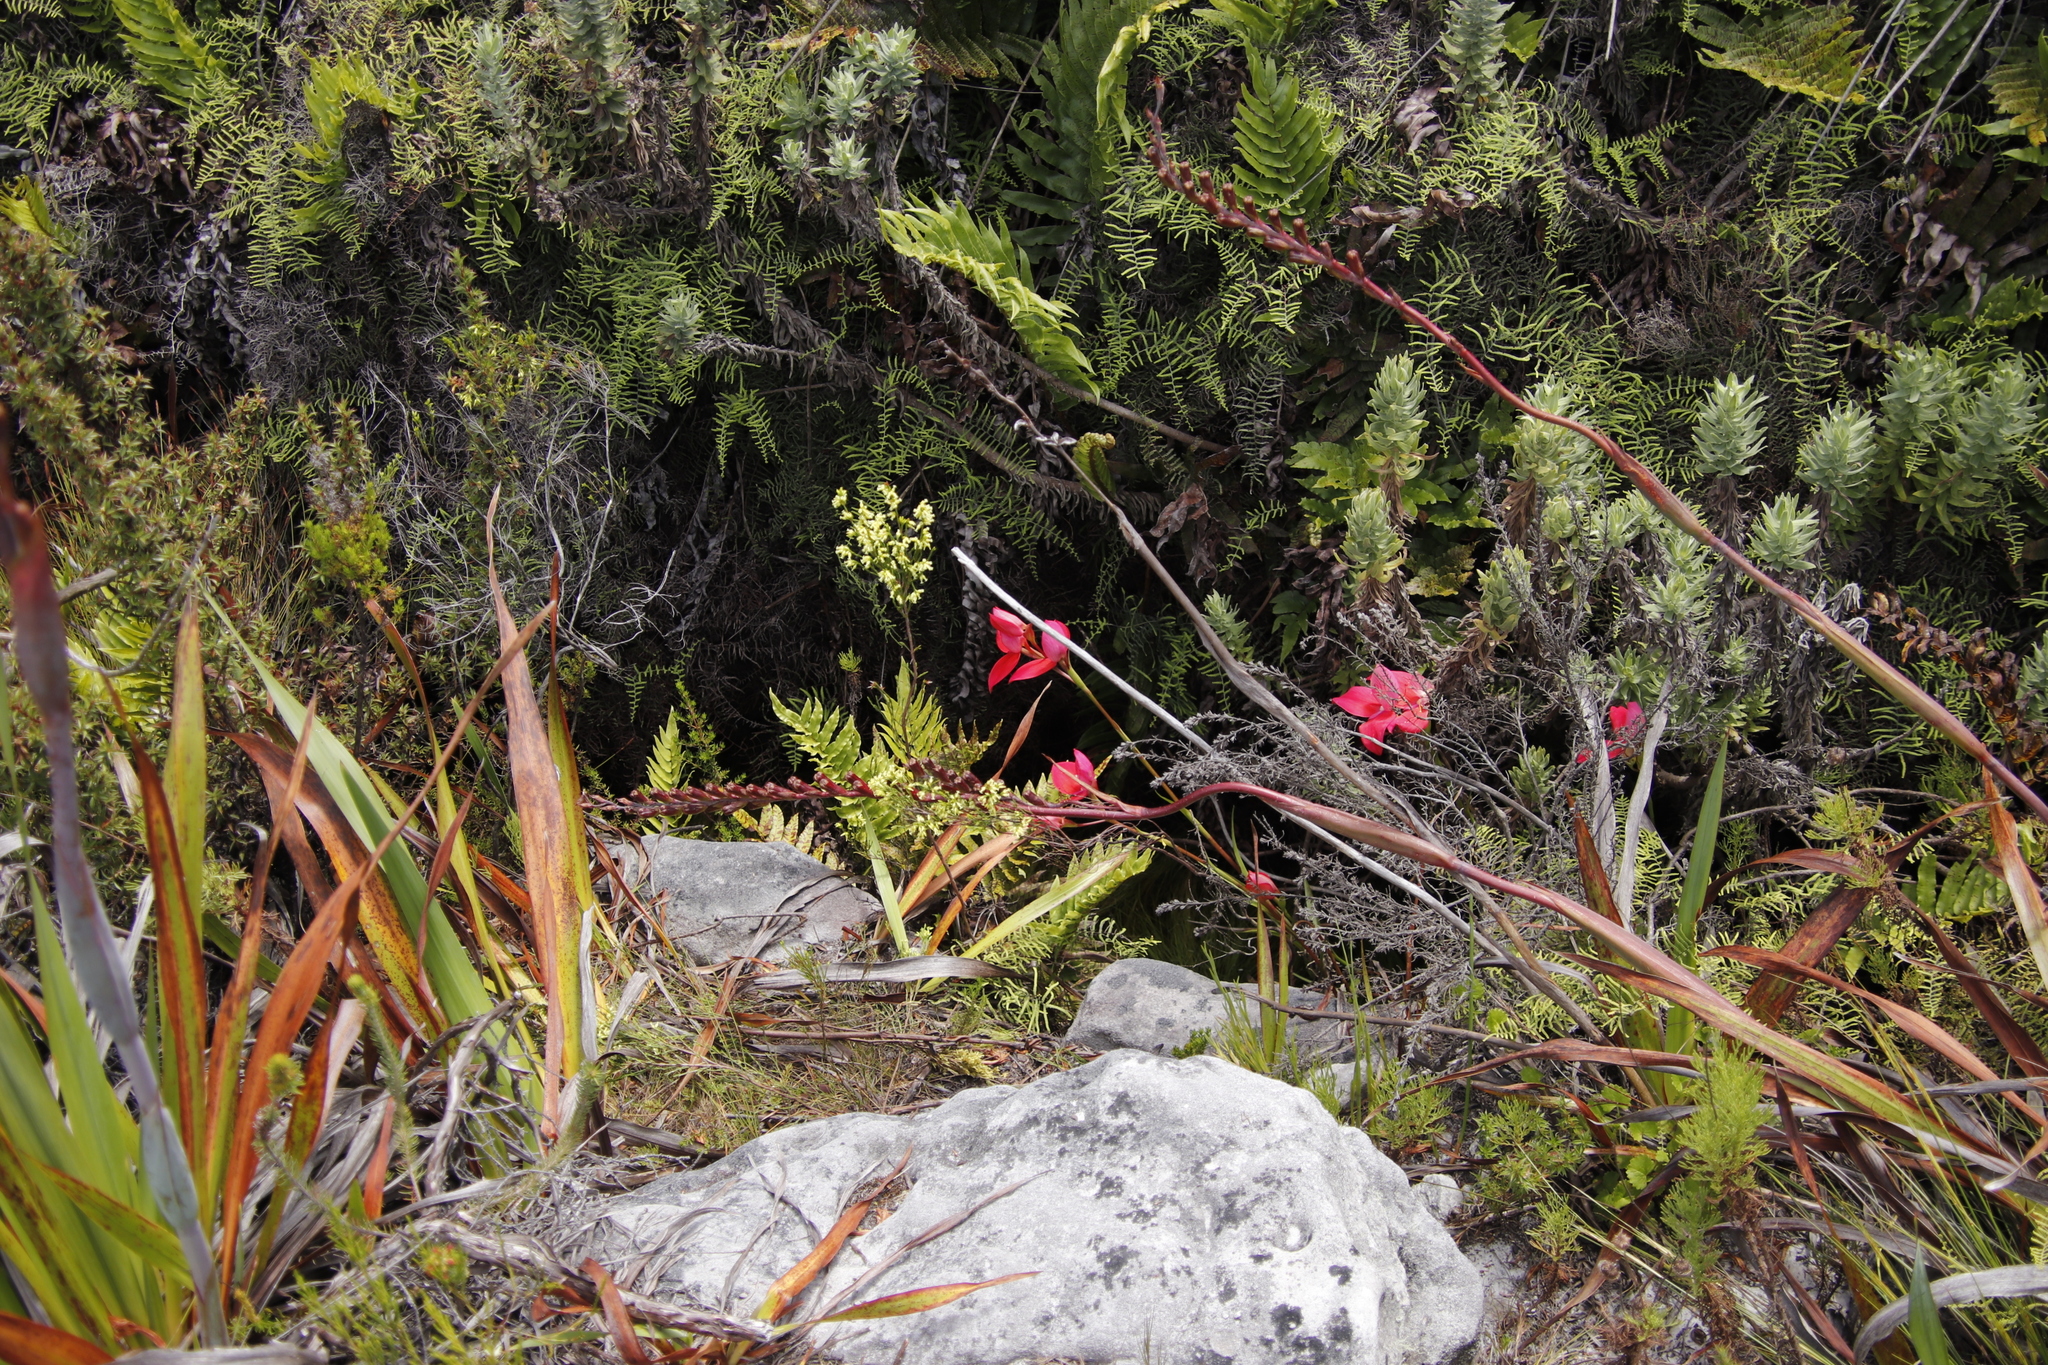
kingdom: Plantae
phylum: Tracheophyta
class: Liliopsida
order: Asparagales
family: Orchidaceae
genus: Disa
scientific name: Disa uniflora
